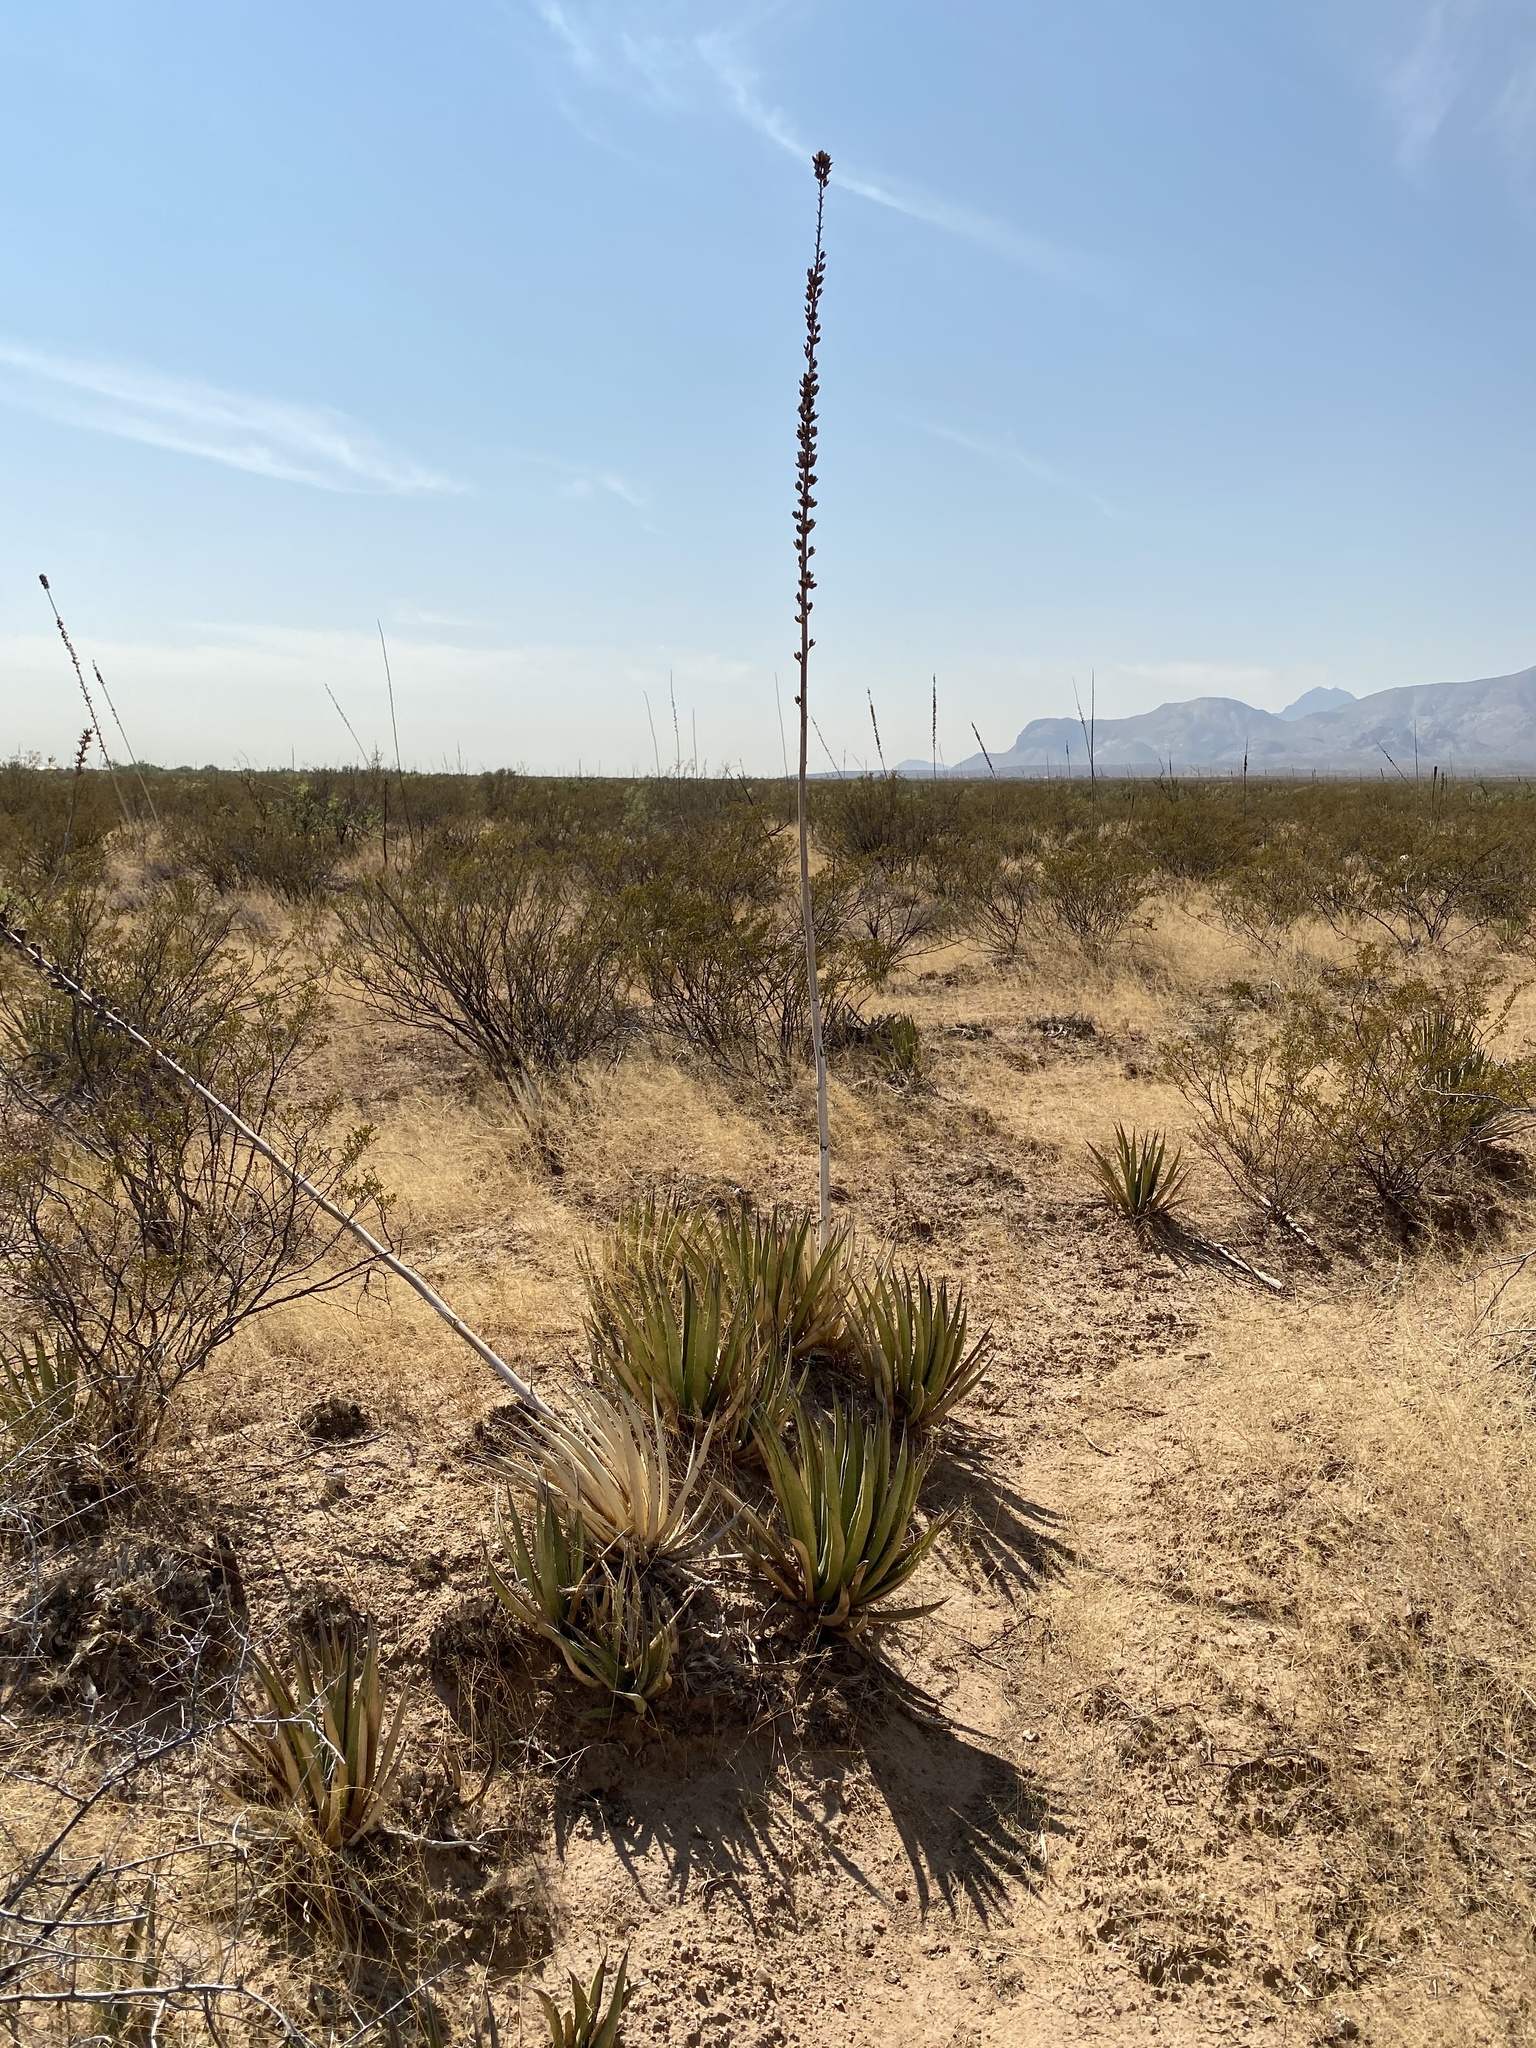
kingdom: Plantae
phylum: Tracheophyta
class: Liliopsida
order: Asparagales
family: Asparagaceae
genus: Agave
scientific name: Agave lechuguilla
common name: Lecheguilla agave
